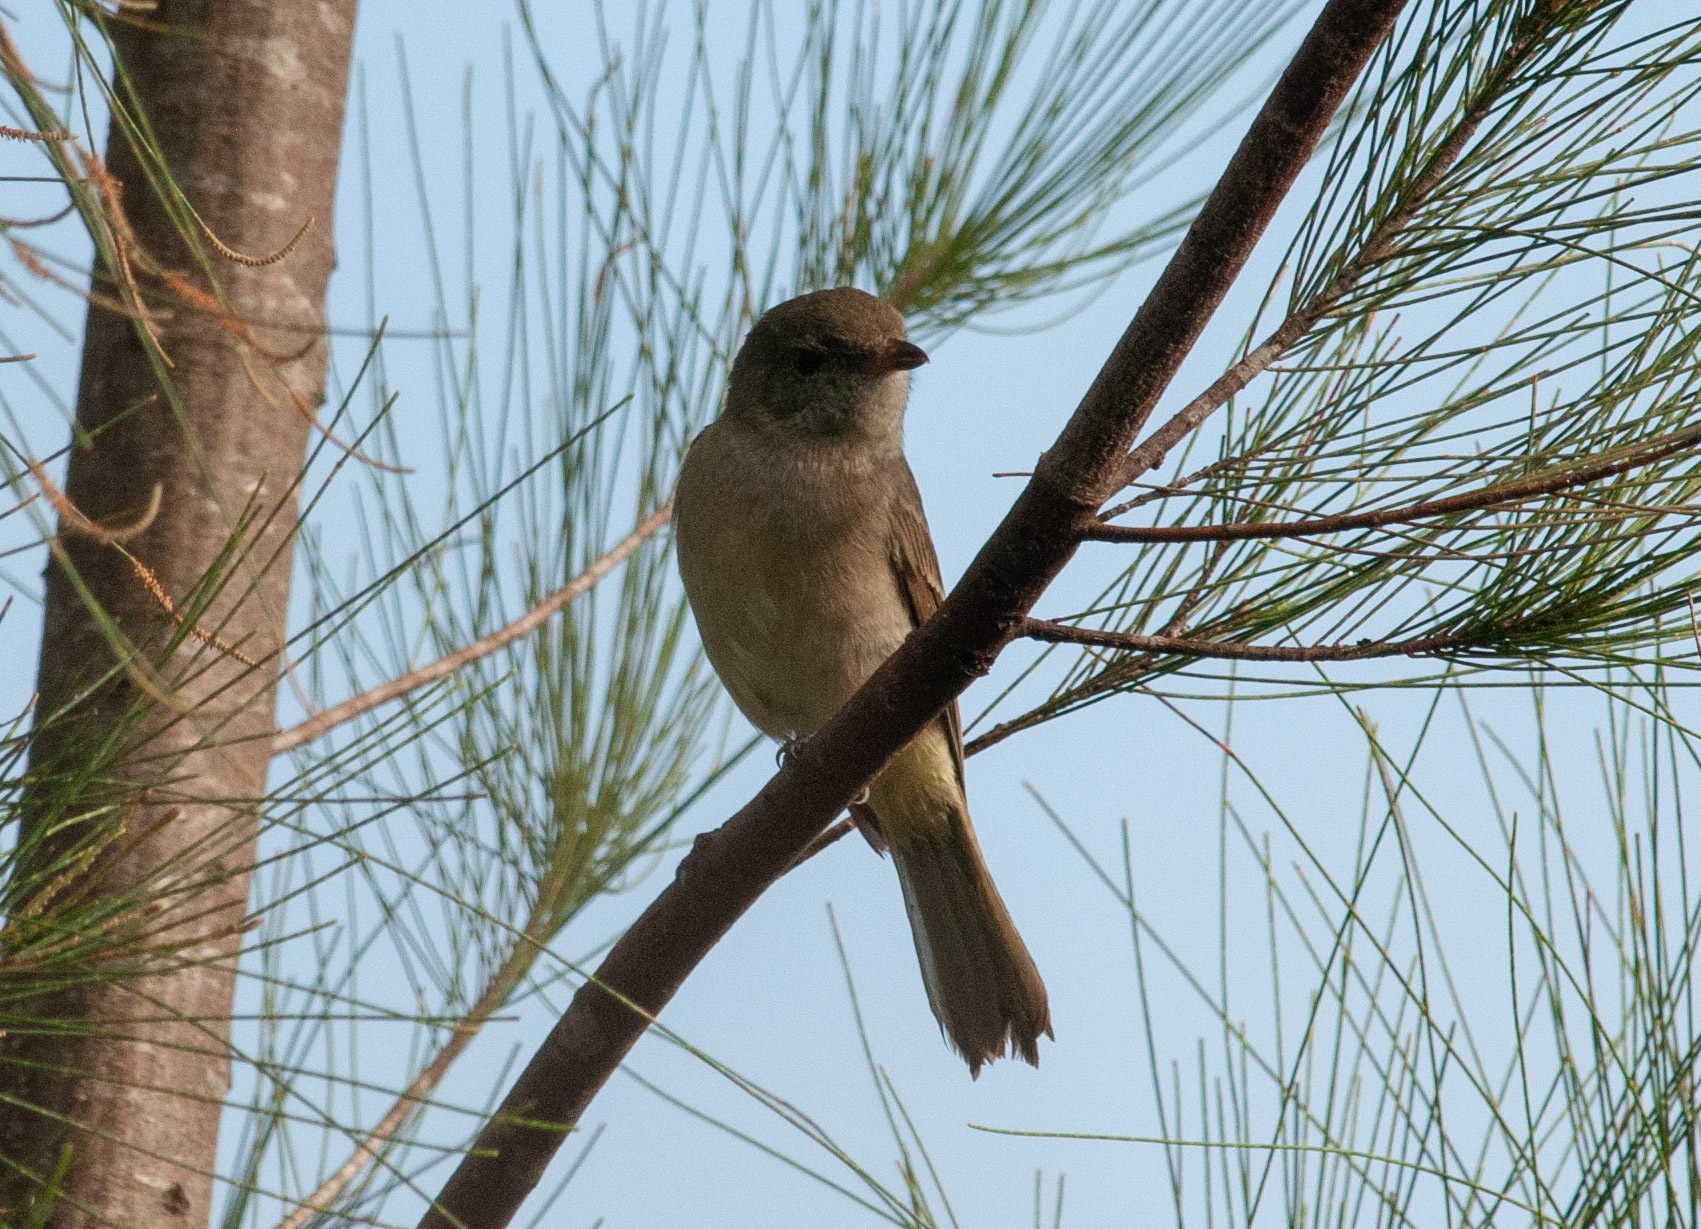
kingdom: Animalia
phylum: Chordata
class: Aves
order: Passeriformes
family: Pachycephalidae
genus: Pachycephala
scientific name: Pachycephala pectoralis
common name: Australian golden whistler
